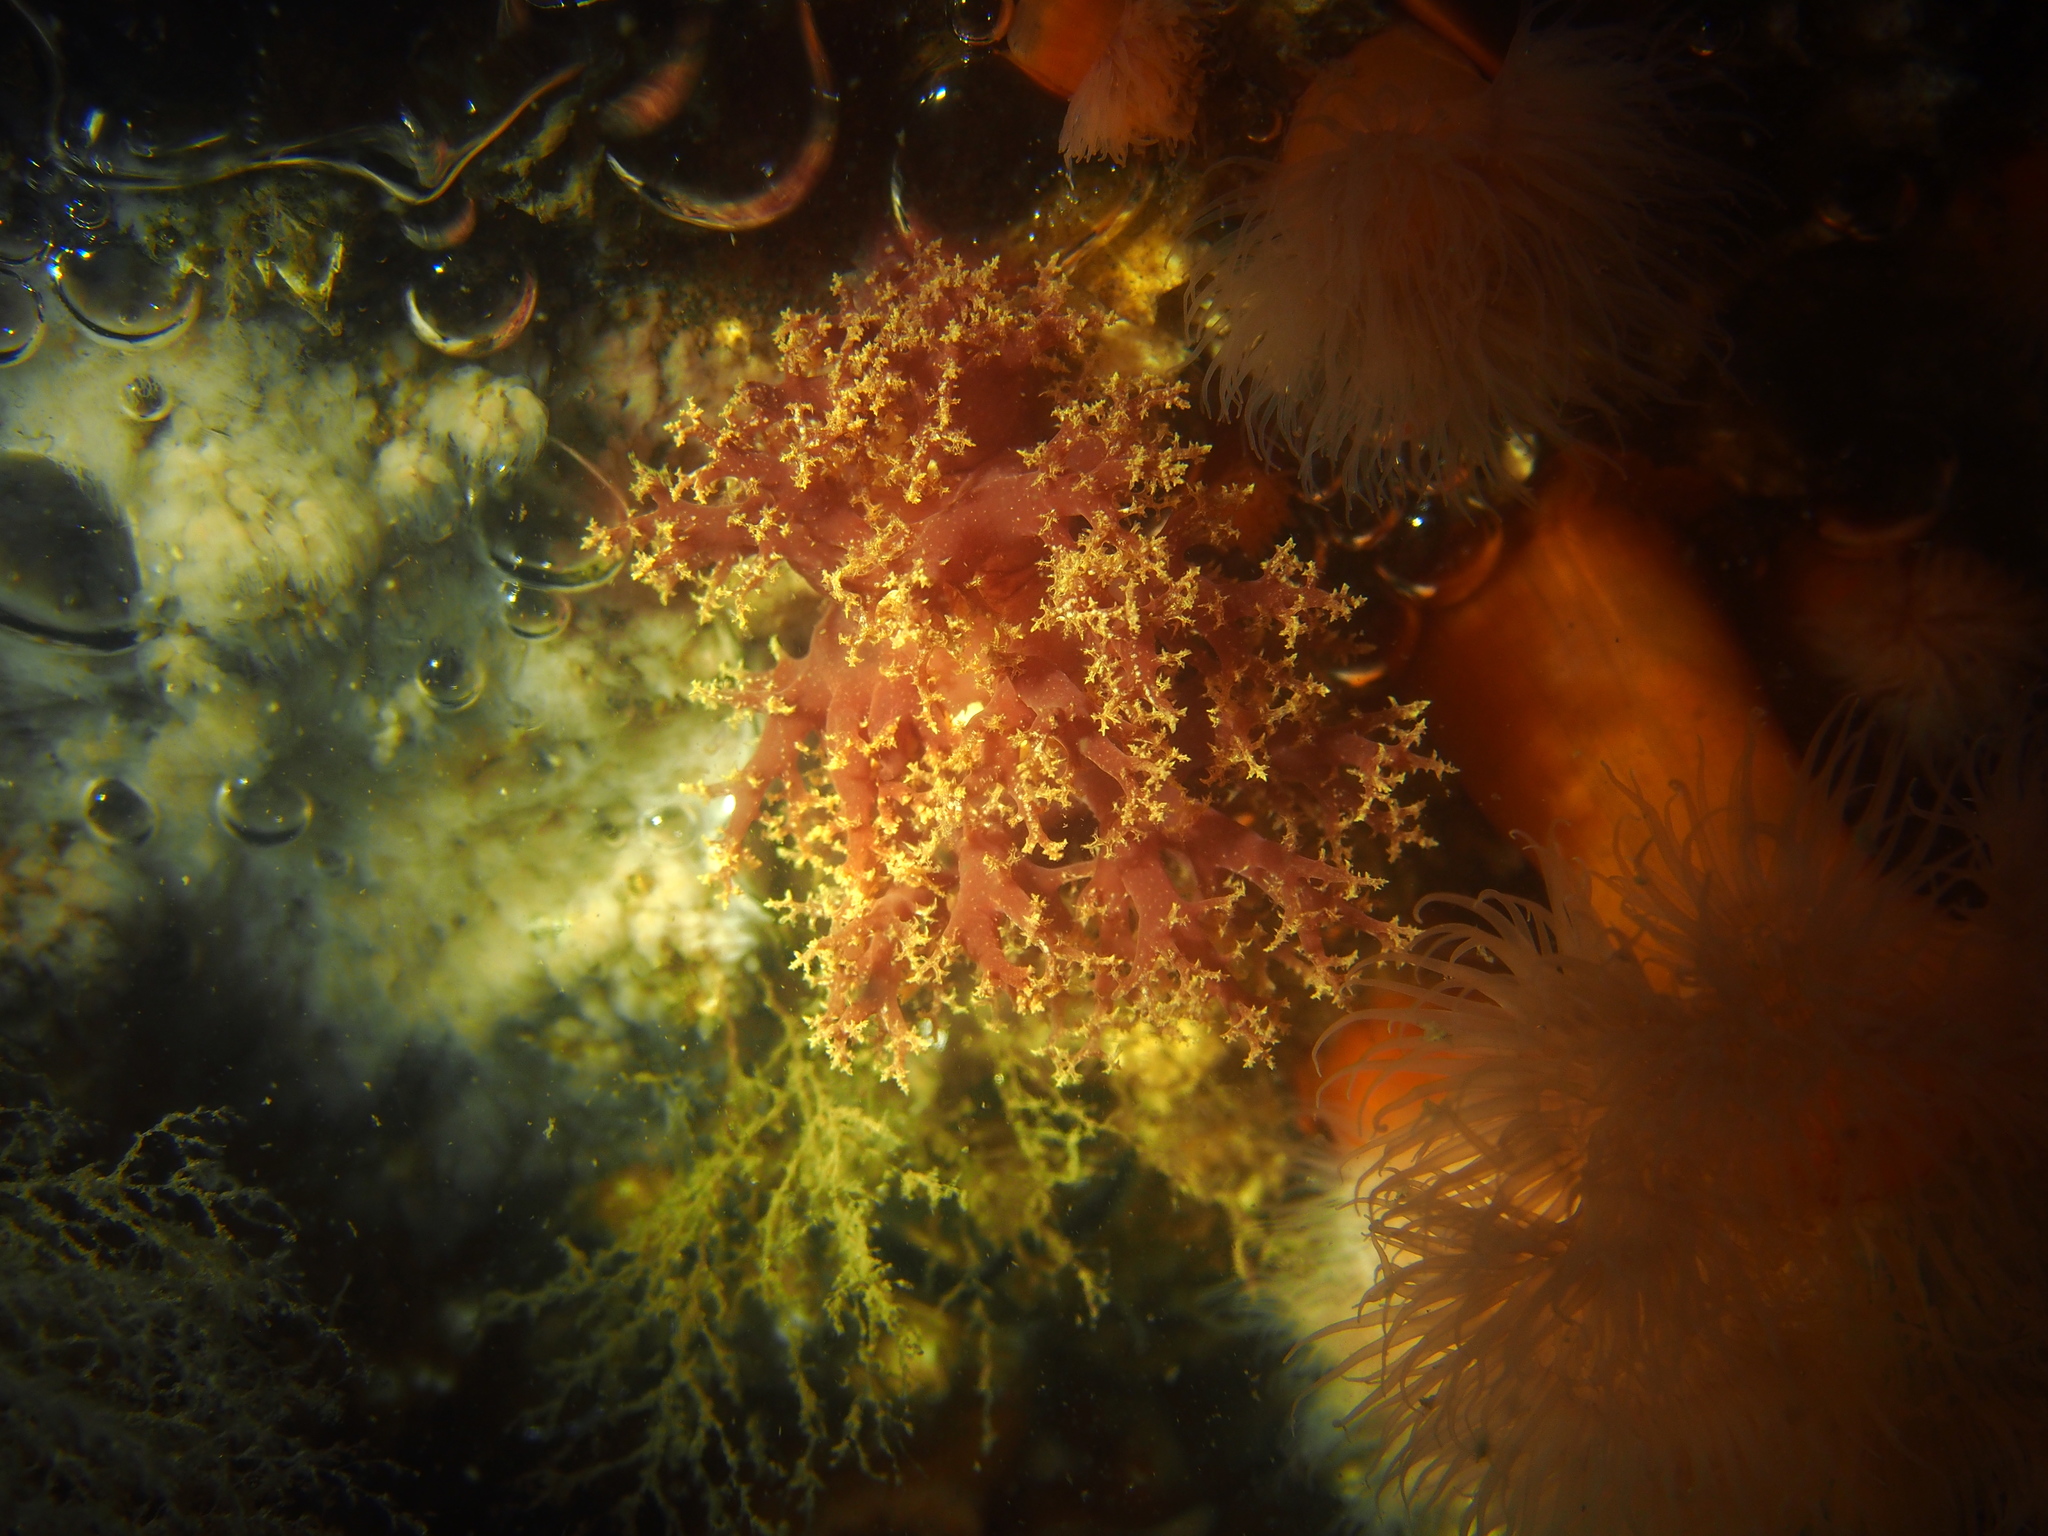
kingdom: Animalia
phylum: Mollusca
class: Gastropoda
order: Nudibranchia
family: Dendronotidae
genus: Dendronotus
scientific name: Dendronotus lacteus
